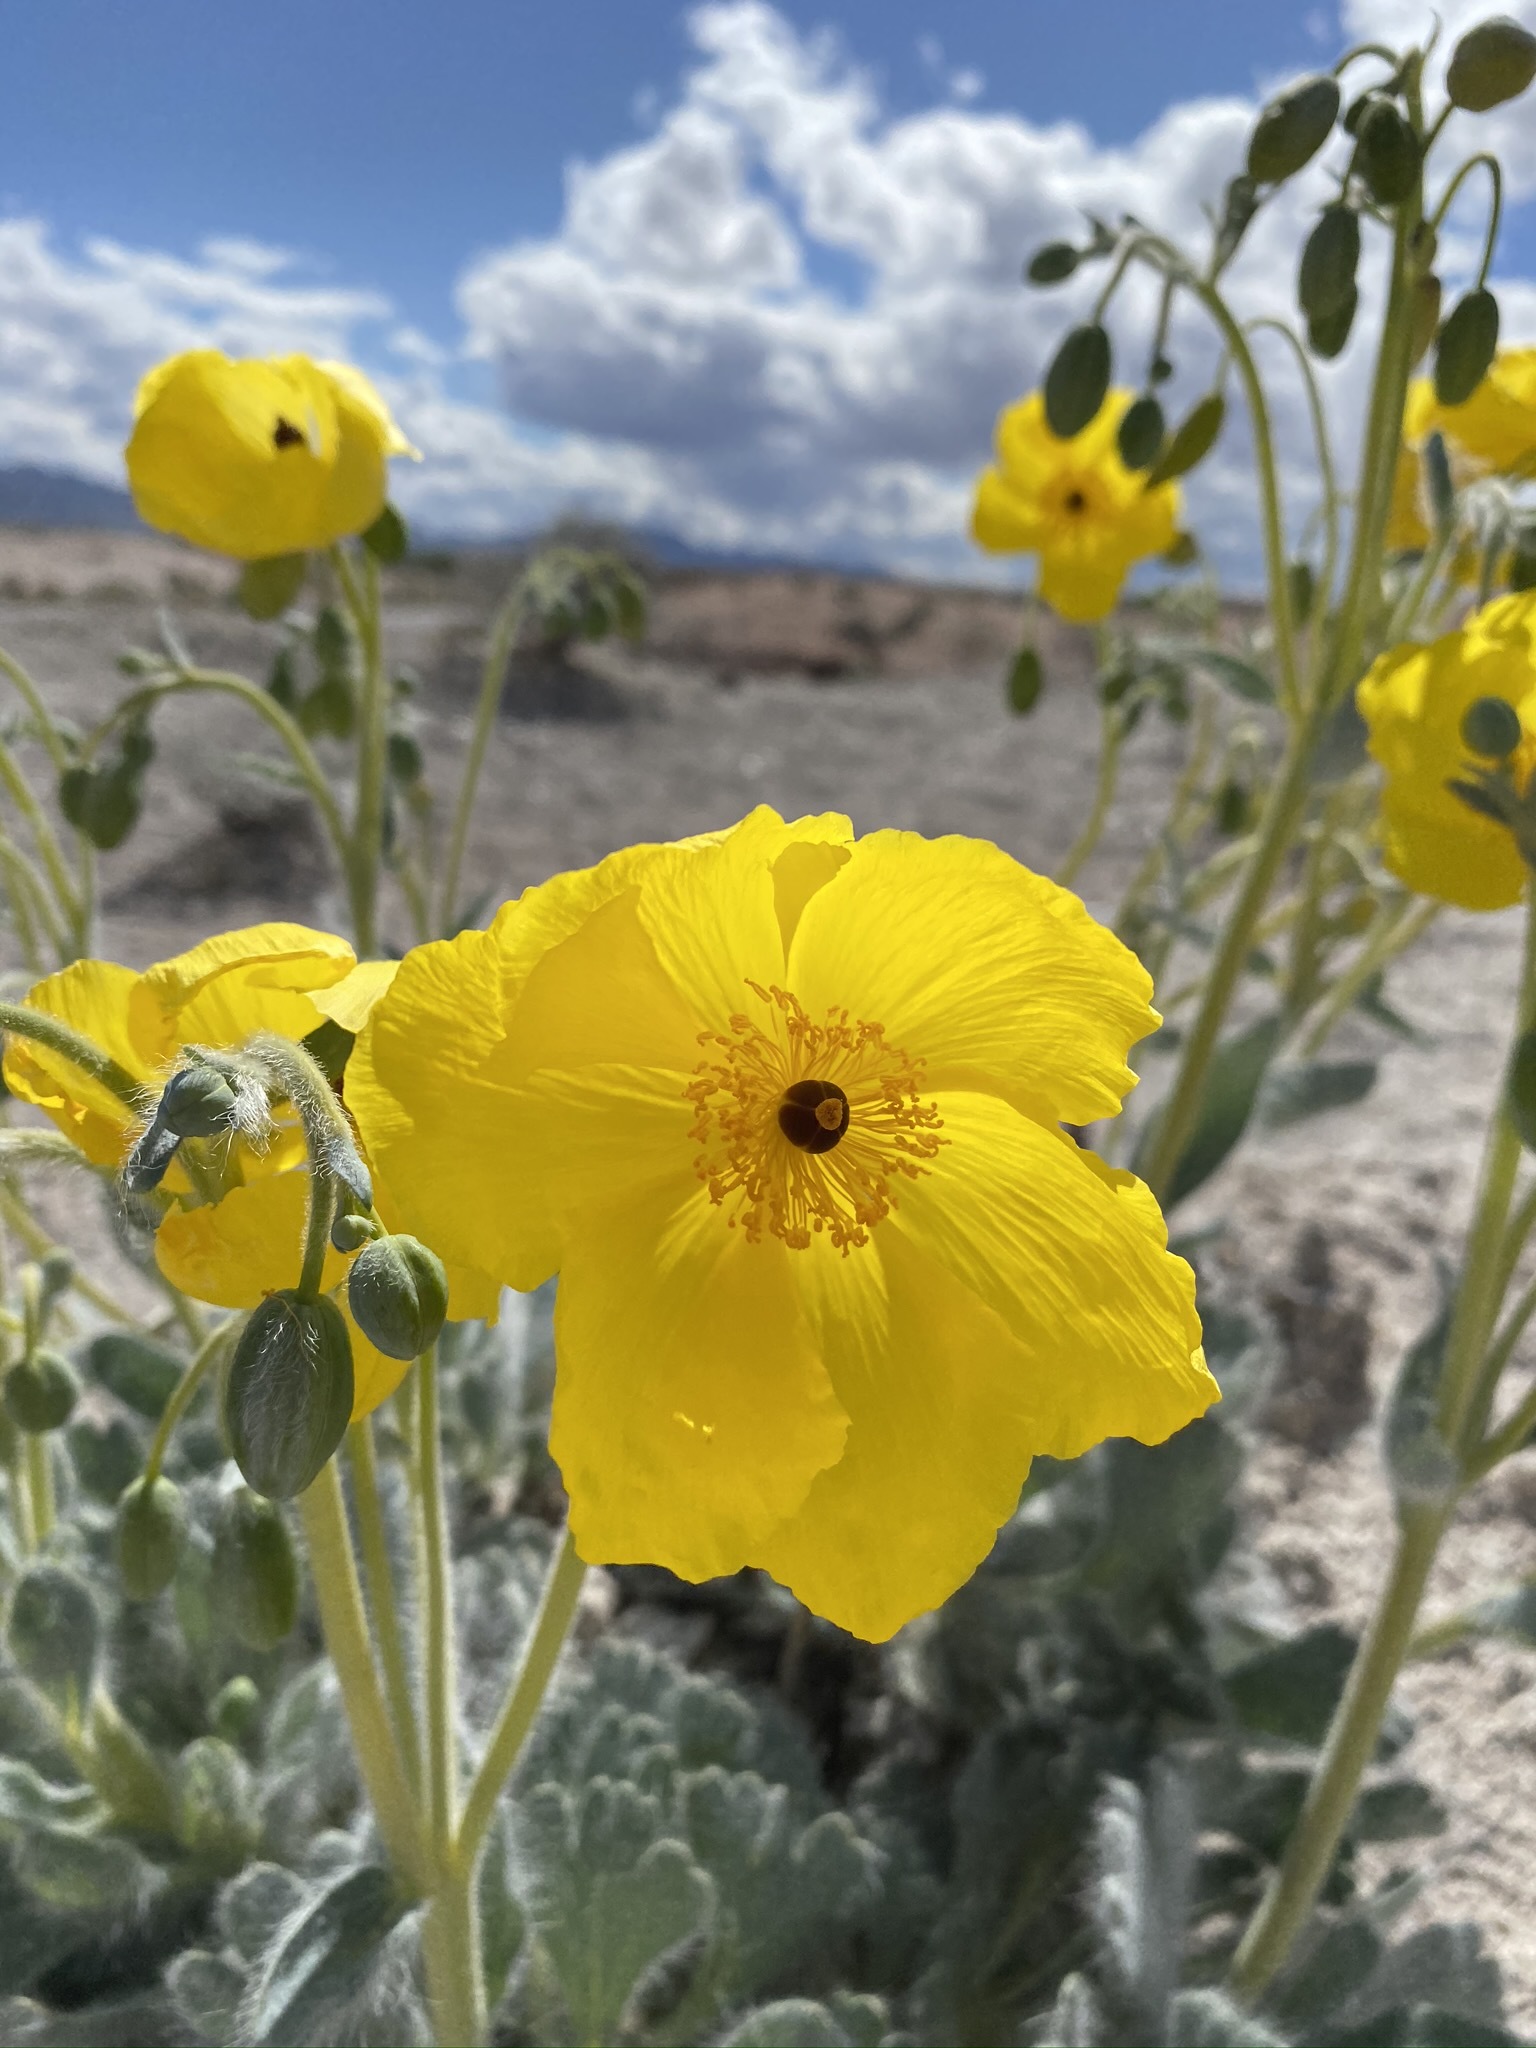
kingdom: Plantae
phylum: Tracheophyta
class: Magnoliopsida
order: Ranunculales
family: Papaveraceae
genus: Arctomecon
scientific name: Arctomecon californicum
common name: Golden bearclaw-poppy
